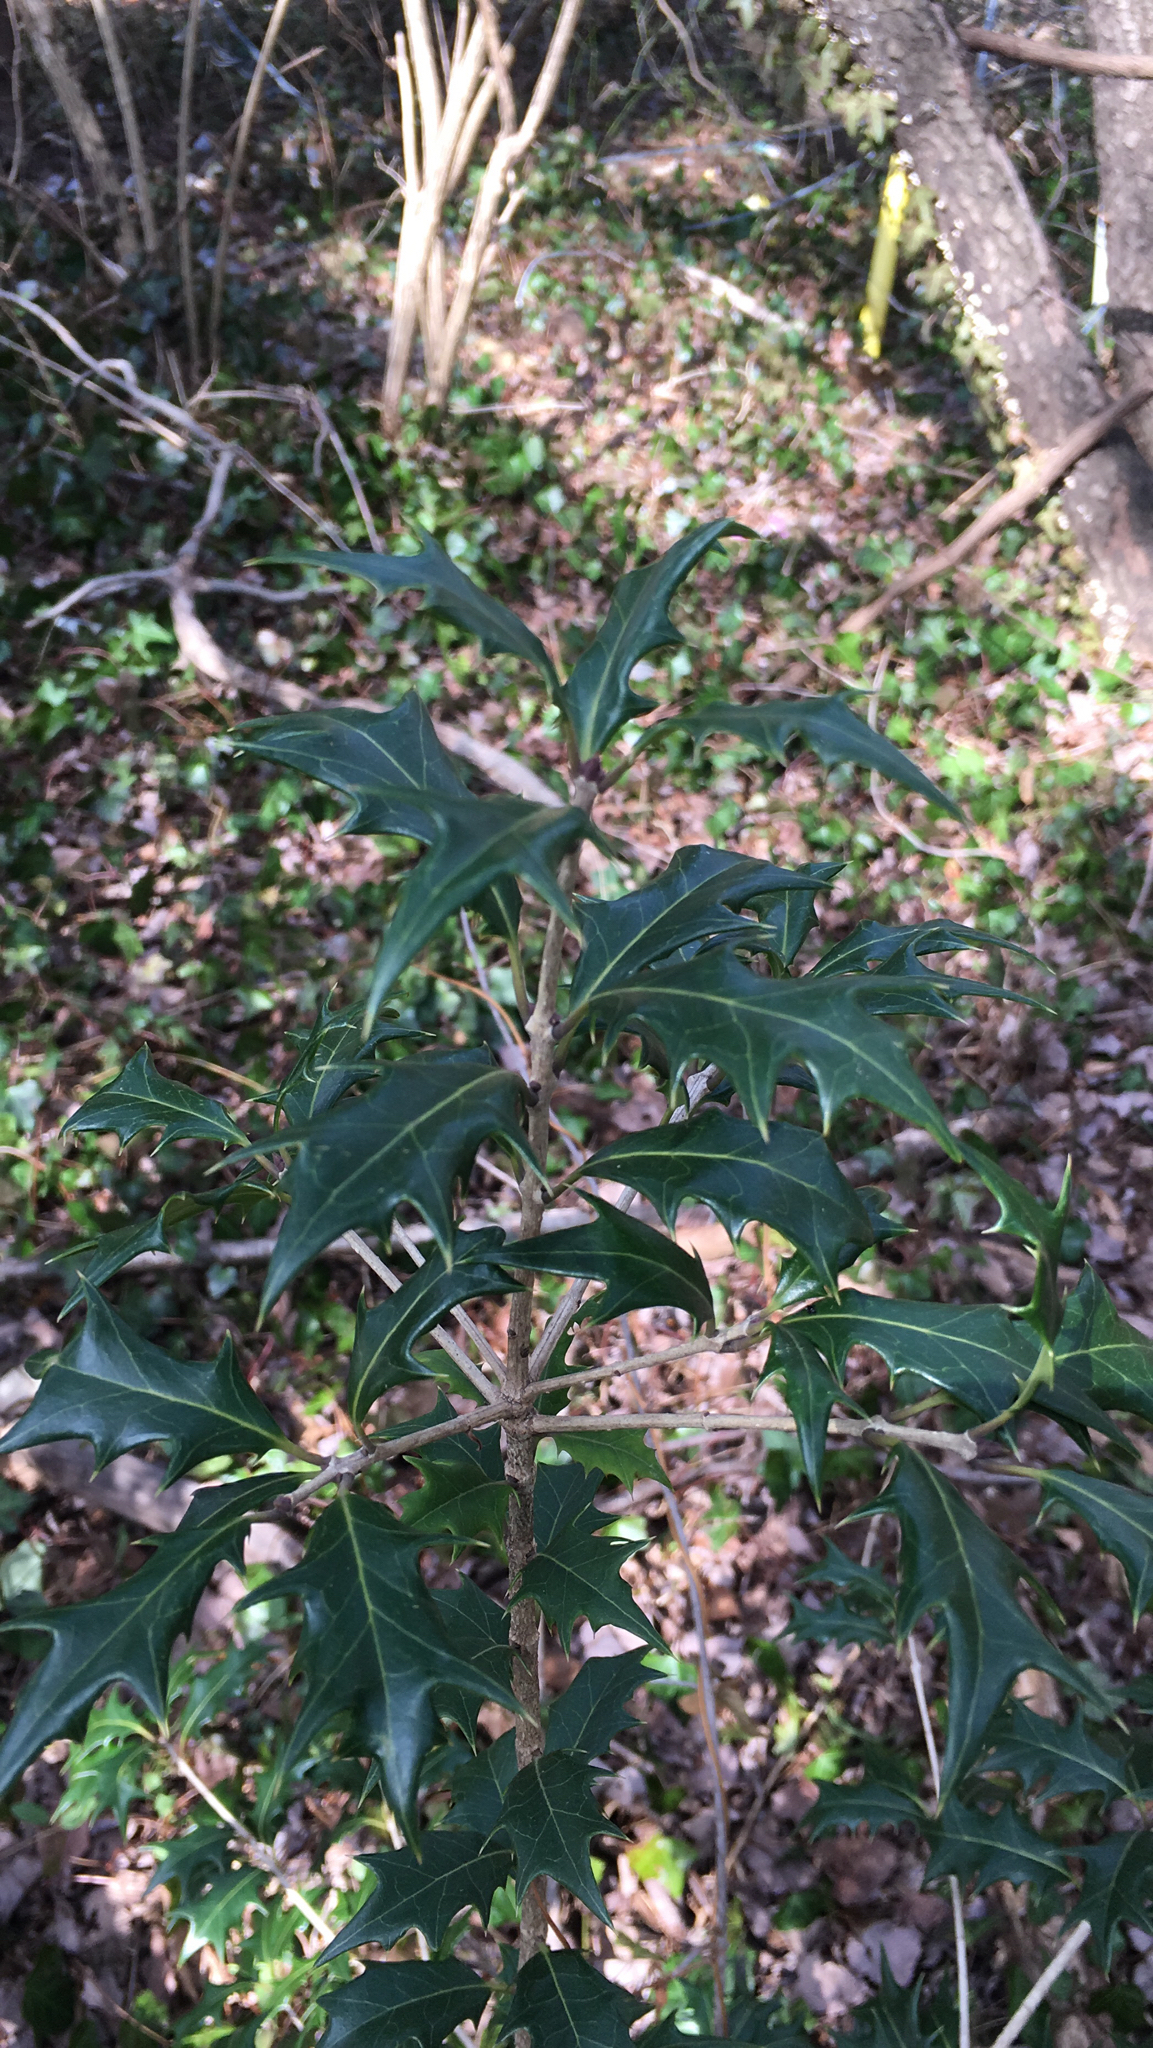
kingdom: Plantae
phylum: Tracheophyta
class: Magnoliopsida
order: Lamiales
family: Oleaceae
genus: Osmanthus
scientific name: Osmanthus heterophyllus
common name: Holly osmanthus
